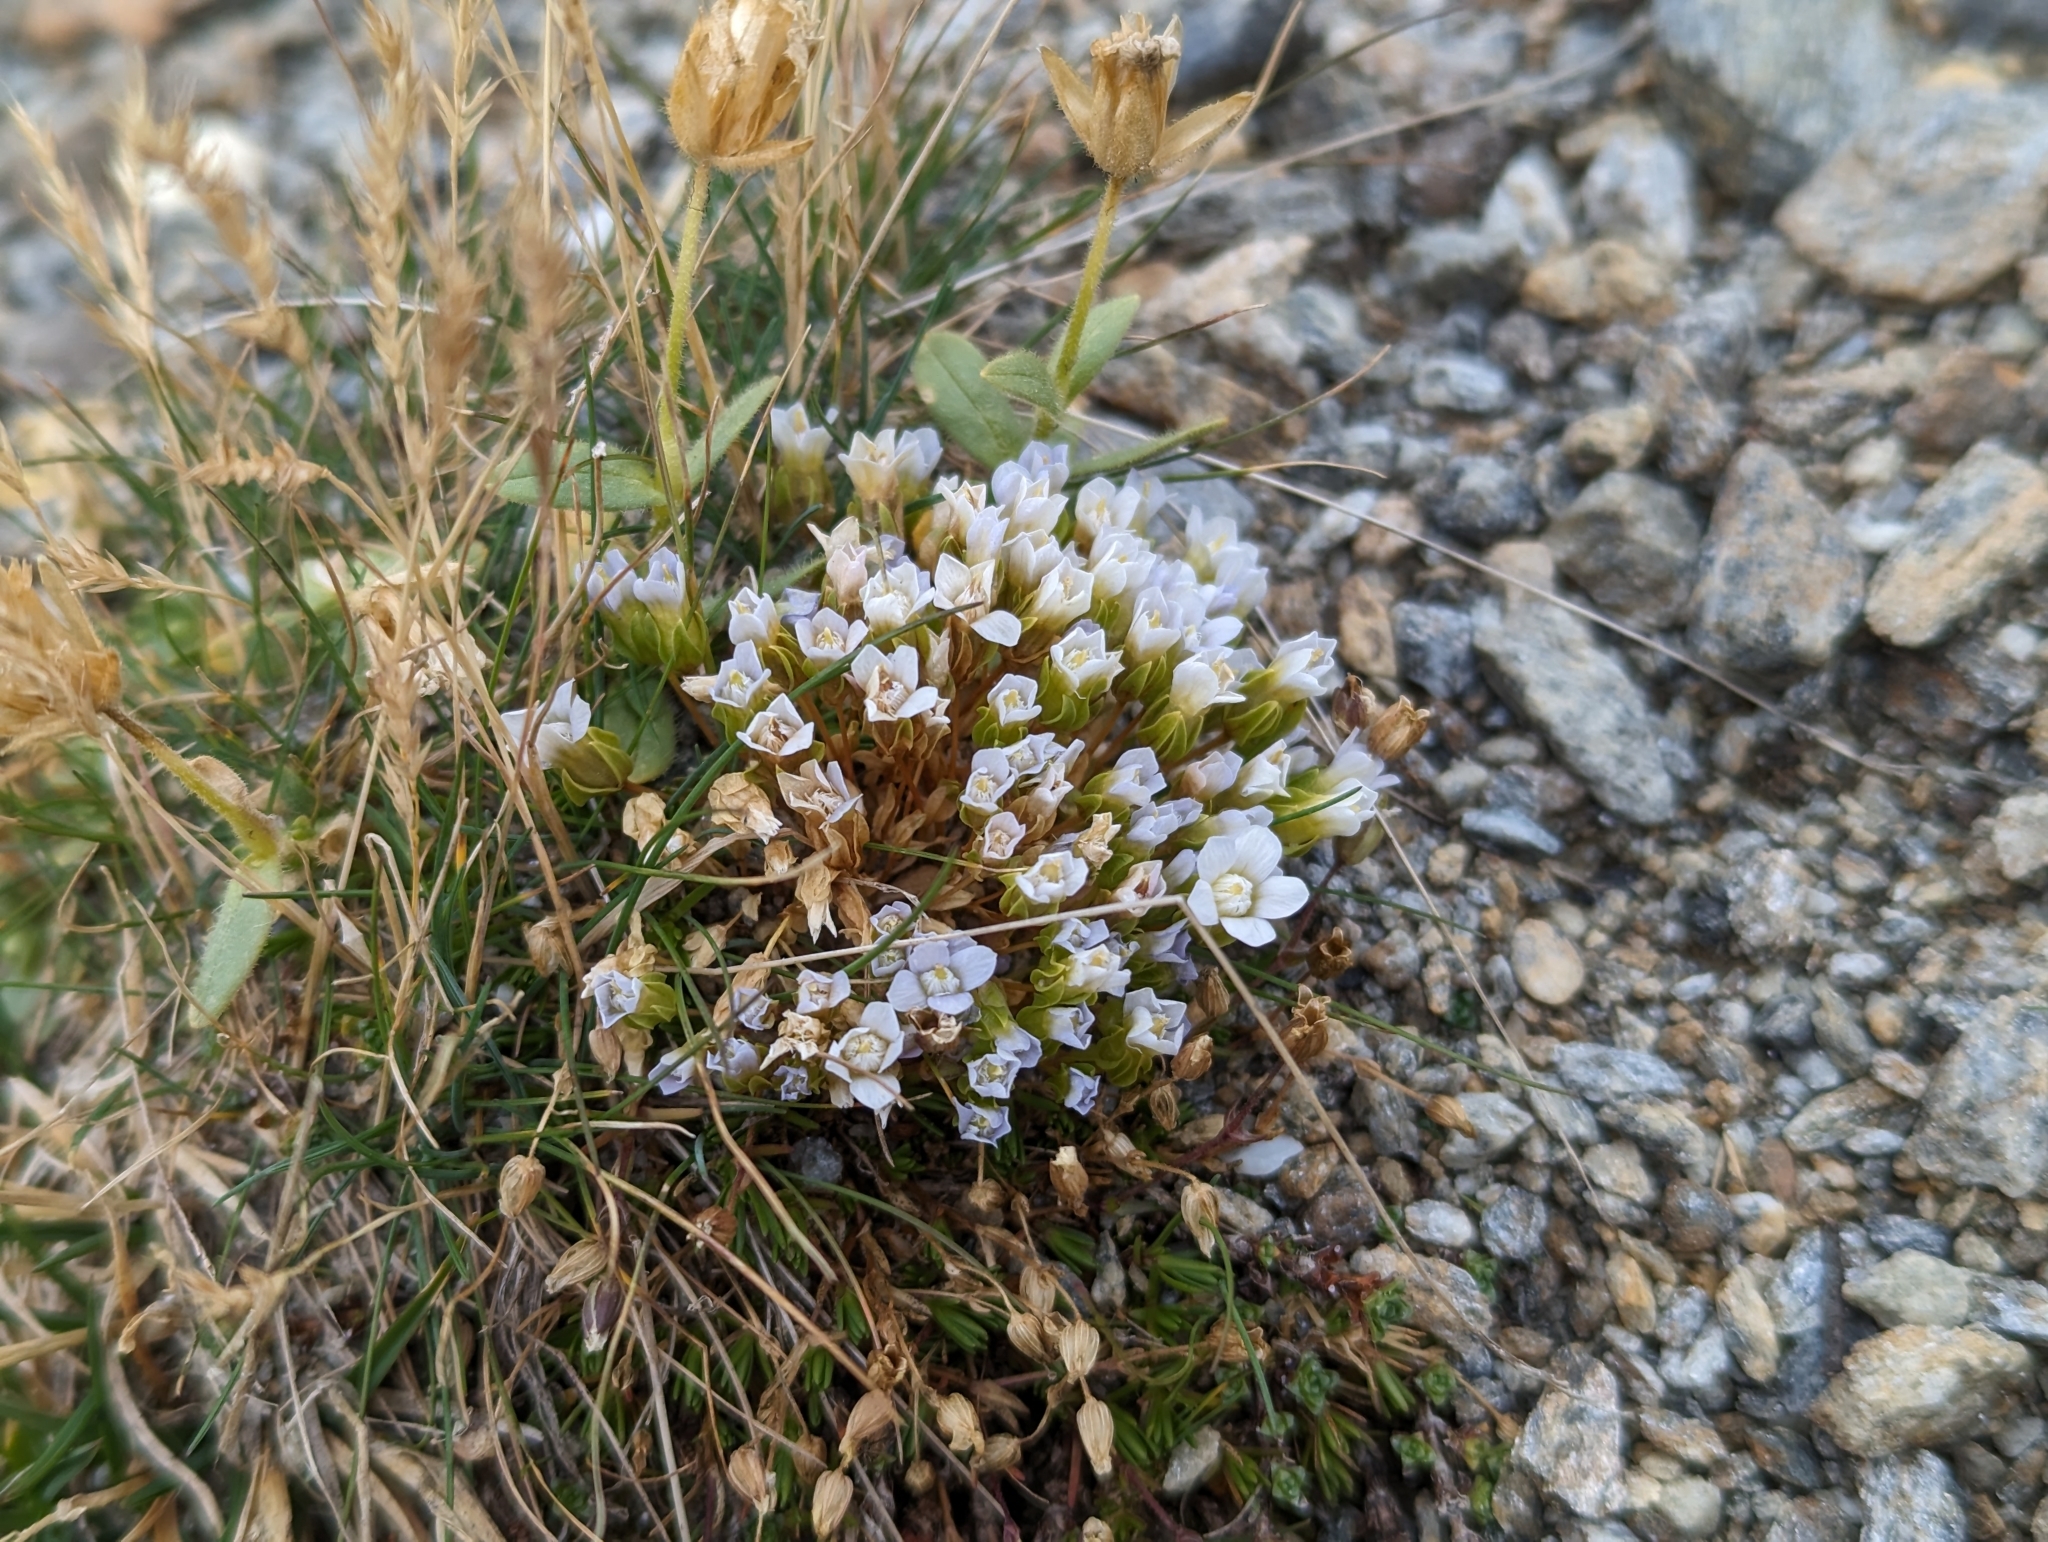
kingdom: Plantae
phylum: Tracheophyta
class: Magnoliopsida
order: Gentianales
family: Gentianaceae
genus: Comastoma
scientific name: Comastoma nanum
